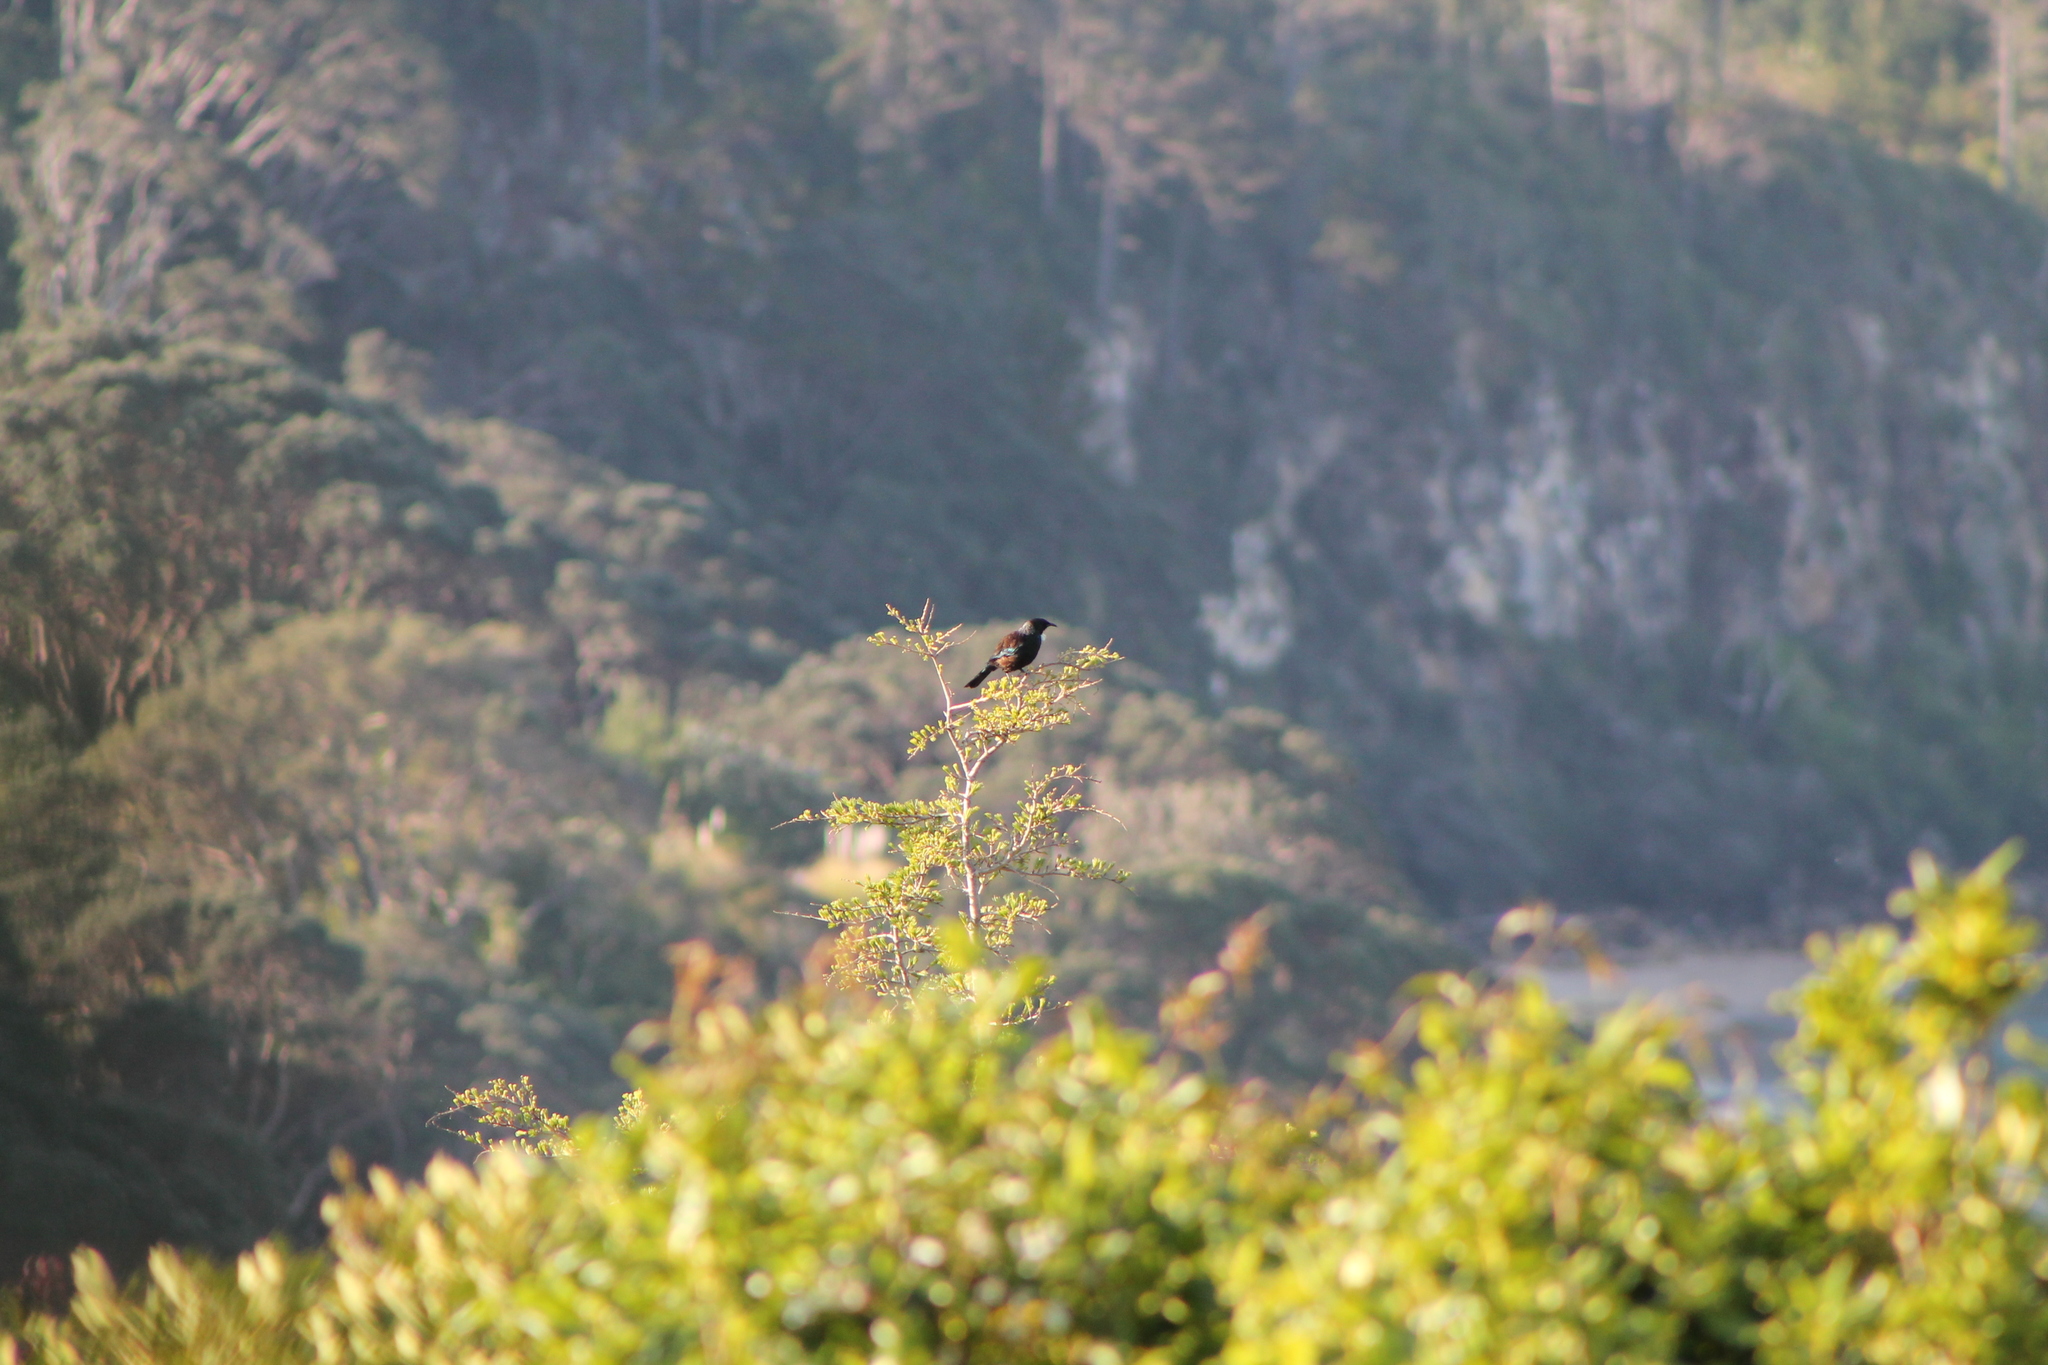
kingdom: Animalia
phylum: Chordata
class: Aves
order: Passeriformes
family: Meliphagidae
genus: Prosthemadera
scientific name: Prosthemadera novaeseelandiae
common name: Tui
